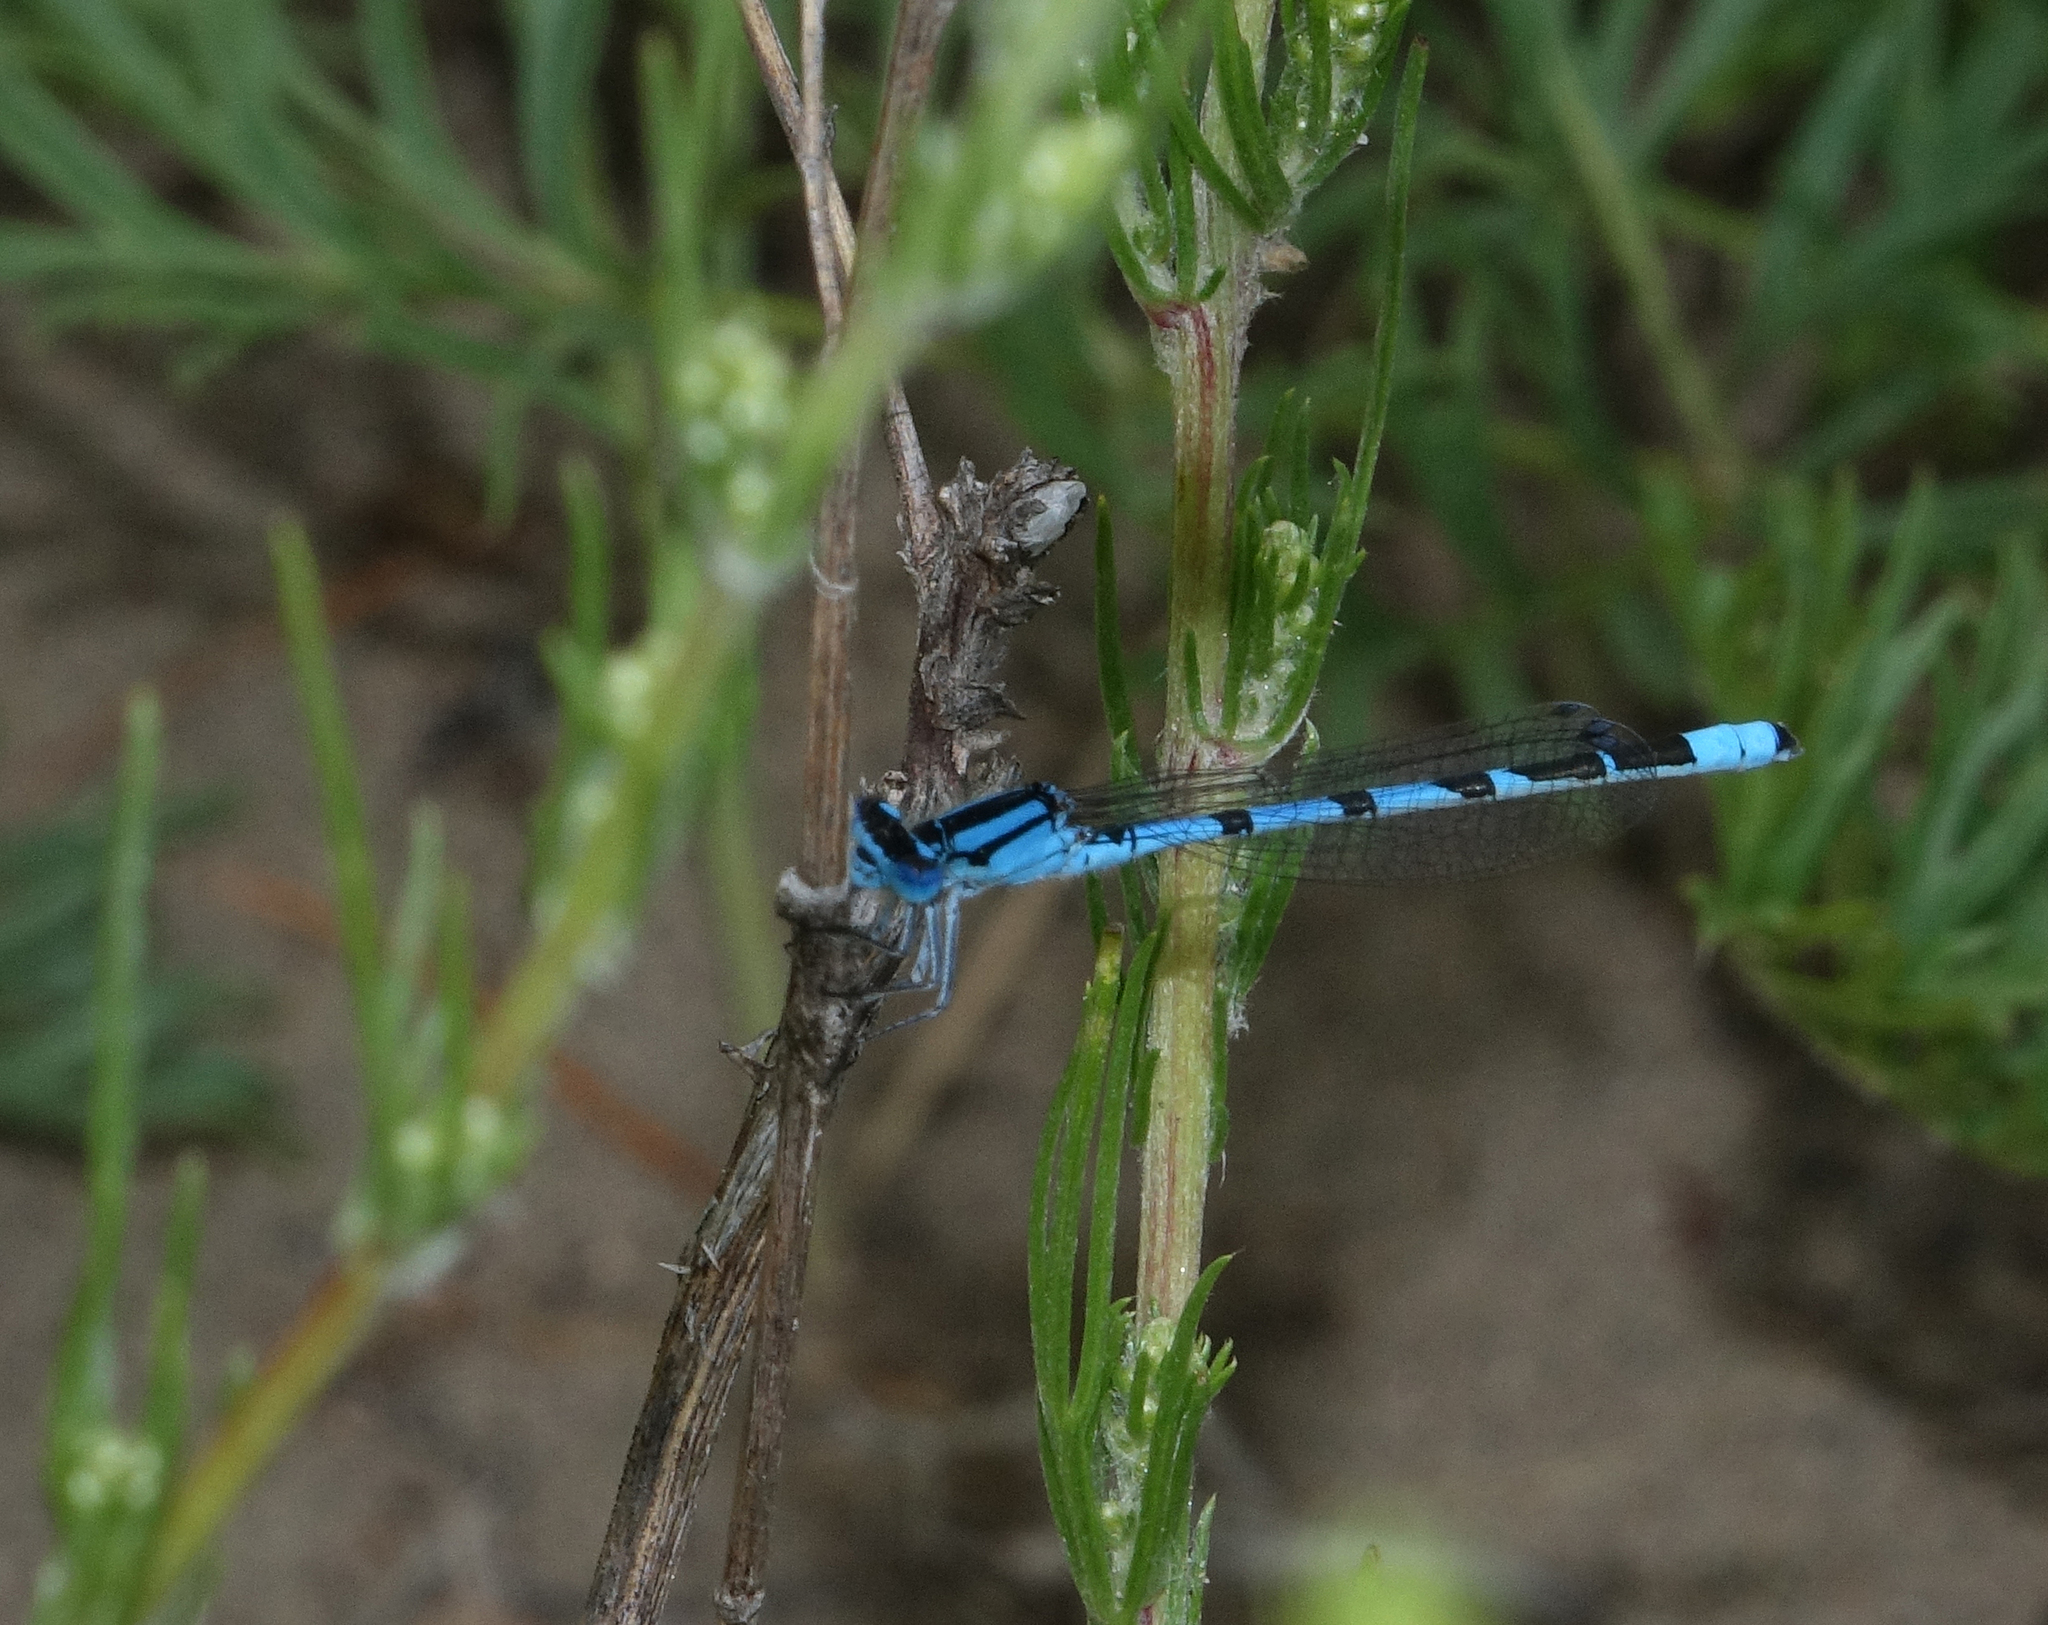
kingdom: Animalia
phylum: Arthropoda
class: Insecta
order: Odonata
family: Coenagrionidae
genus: Enallagma
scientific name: Enallagma cyathigerum
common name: Common blue damselfly
